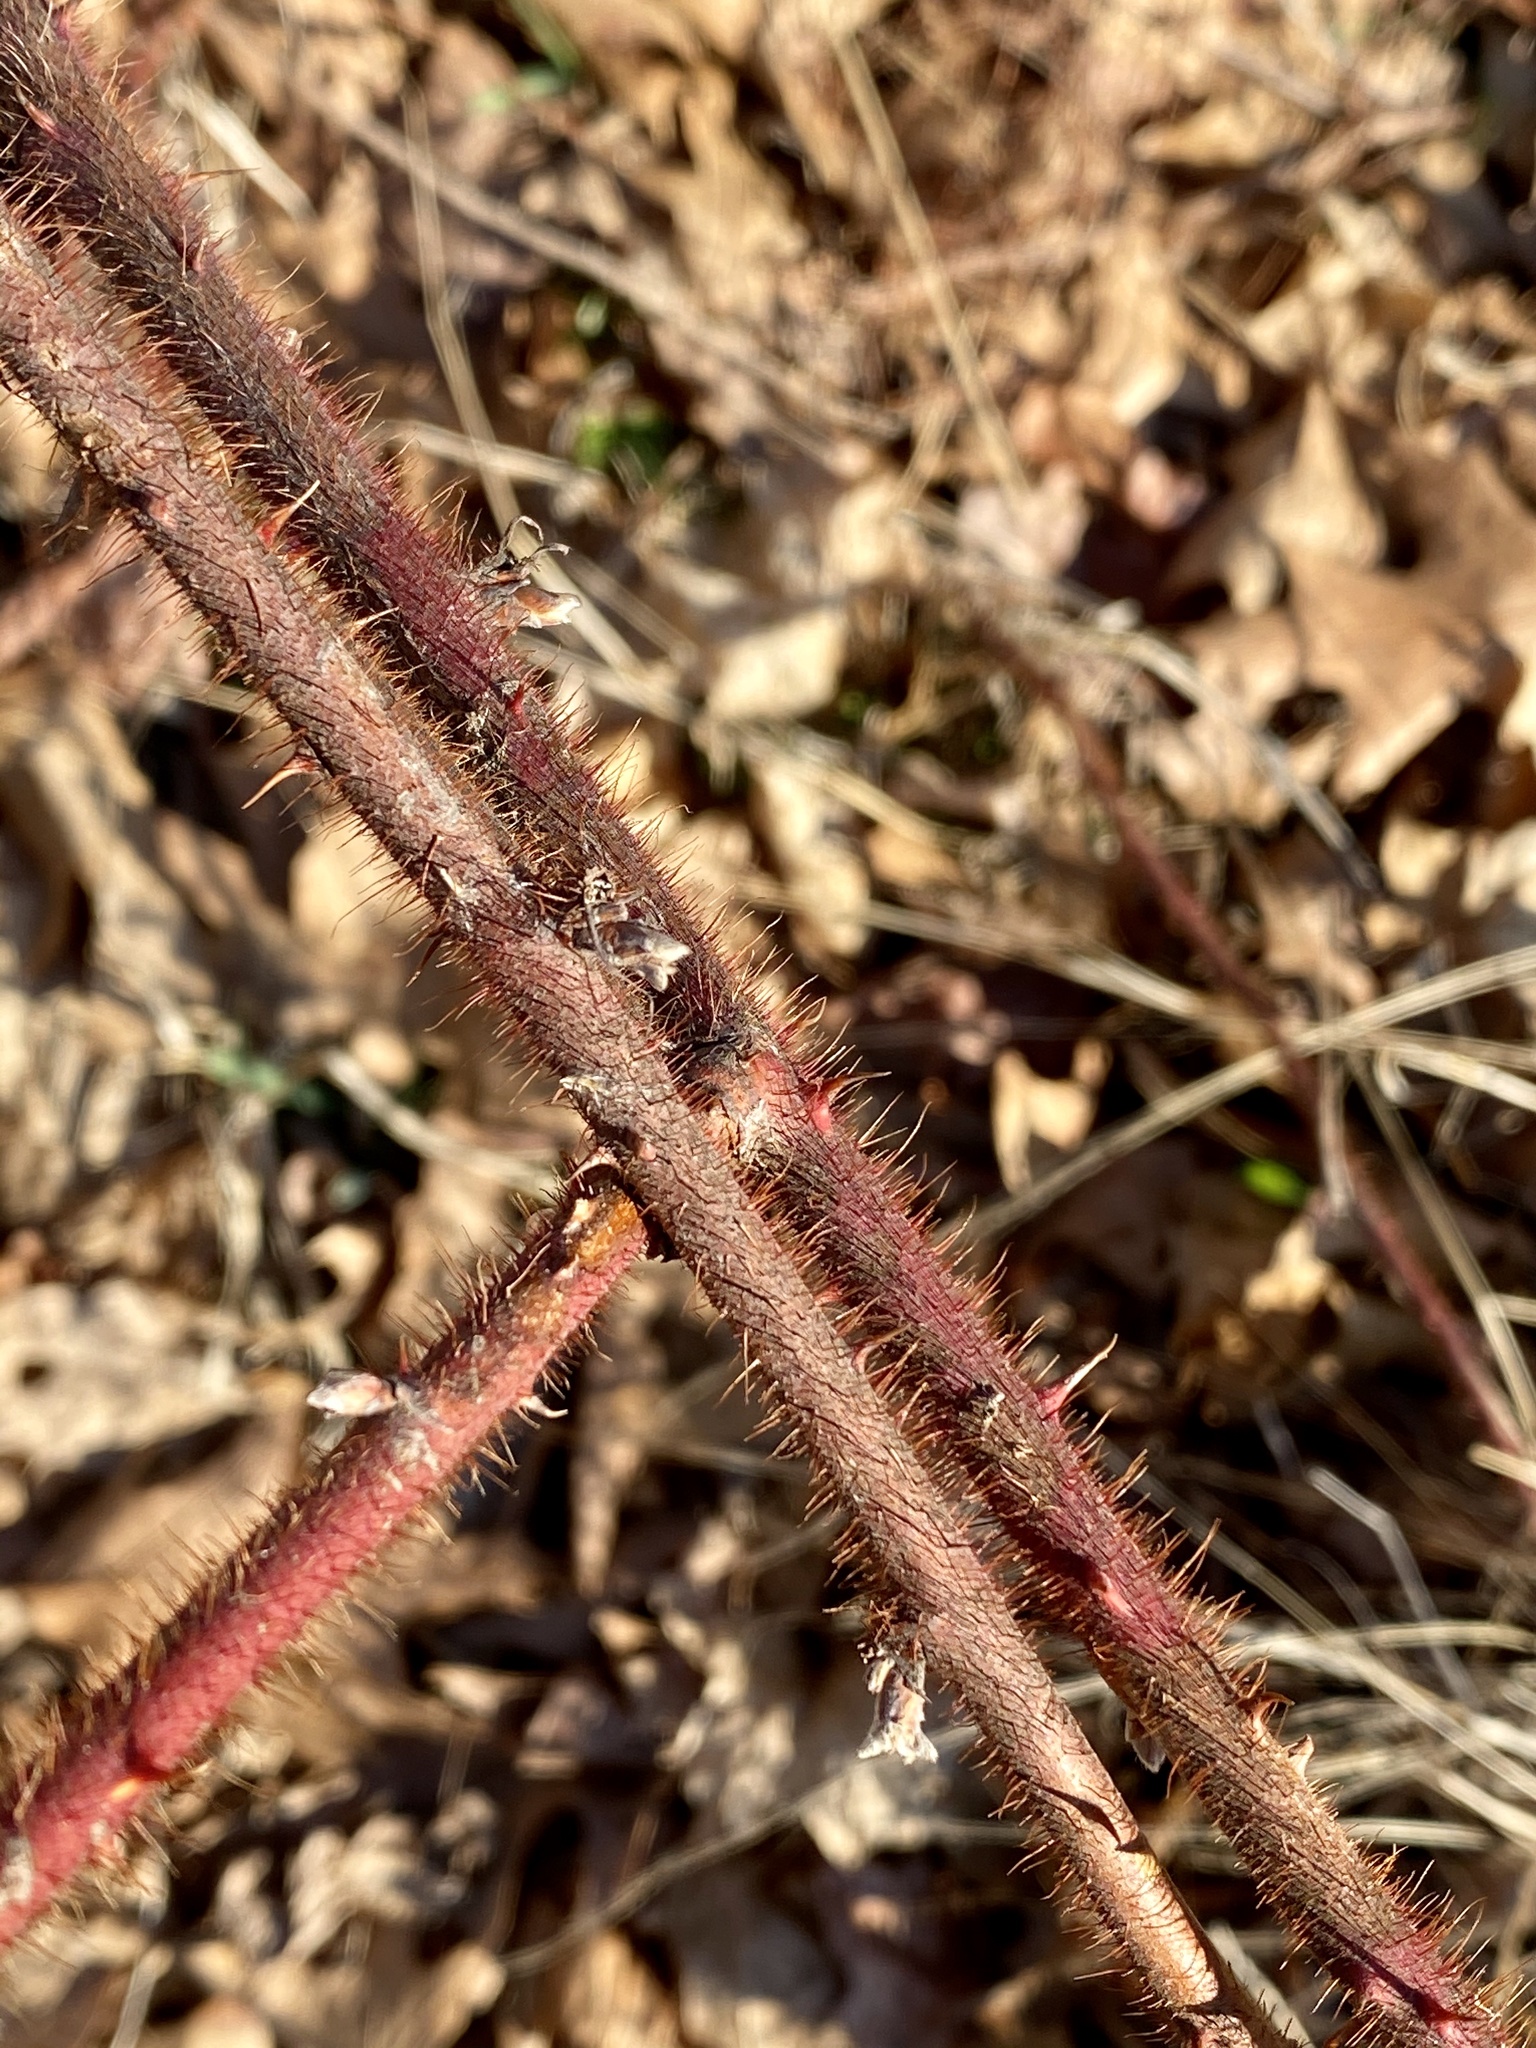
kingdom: Plantae
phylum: Tracheophyta
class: Magnoliopsida
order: Rosales
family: Rosaceae
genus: Rubus
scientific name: Rubus phoenicolasius
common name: Japanese wineberry
